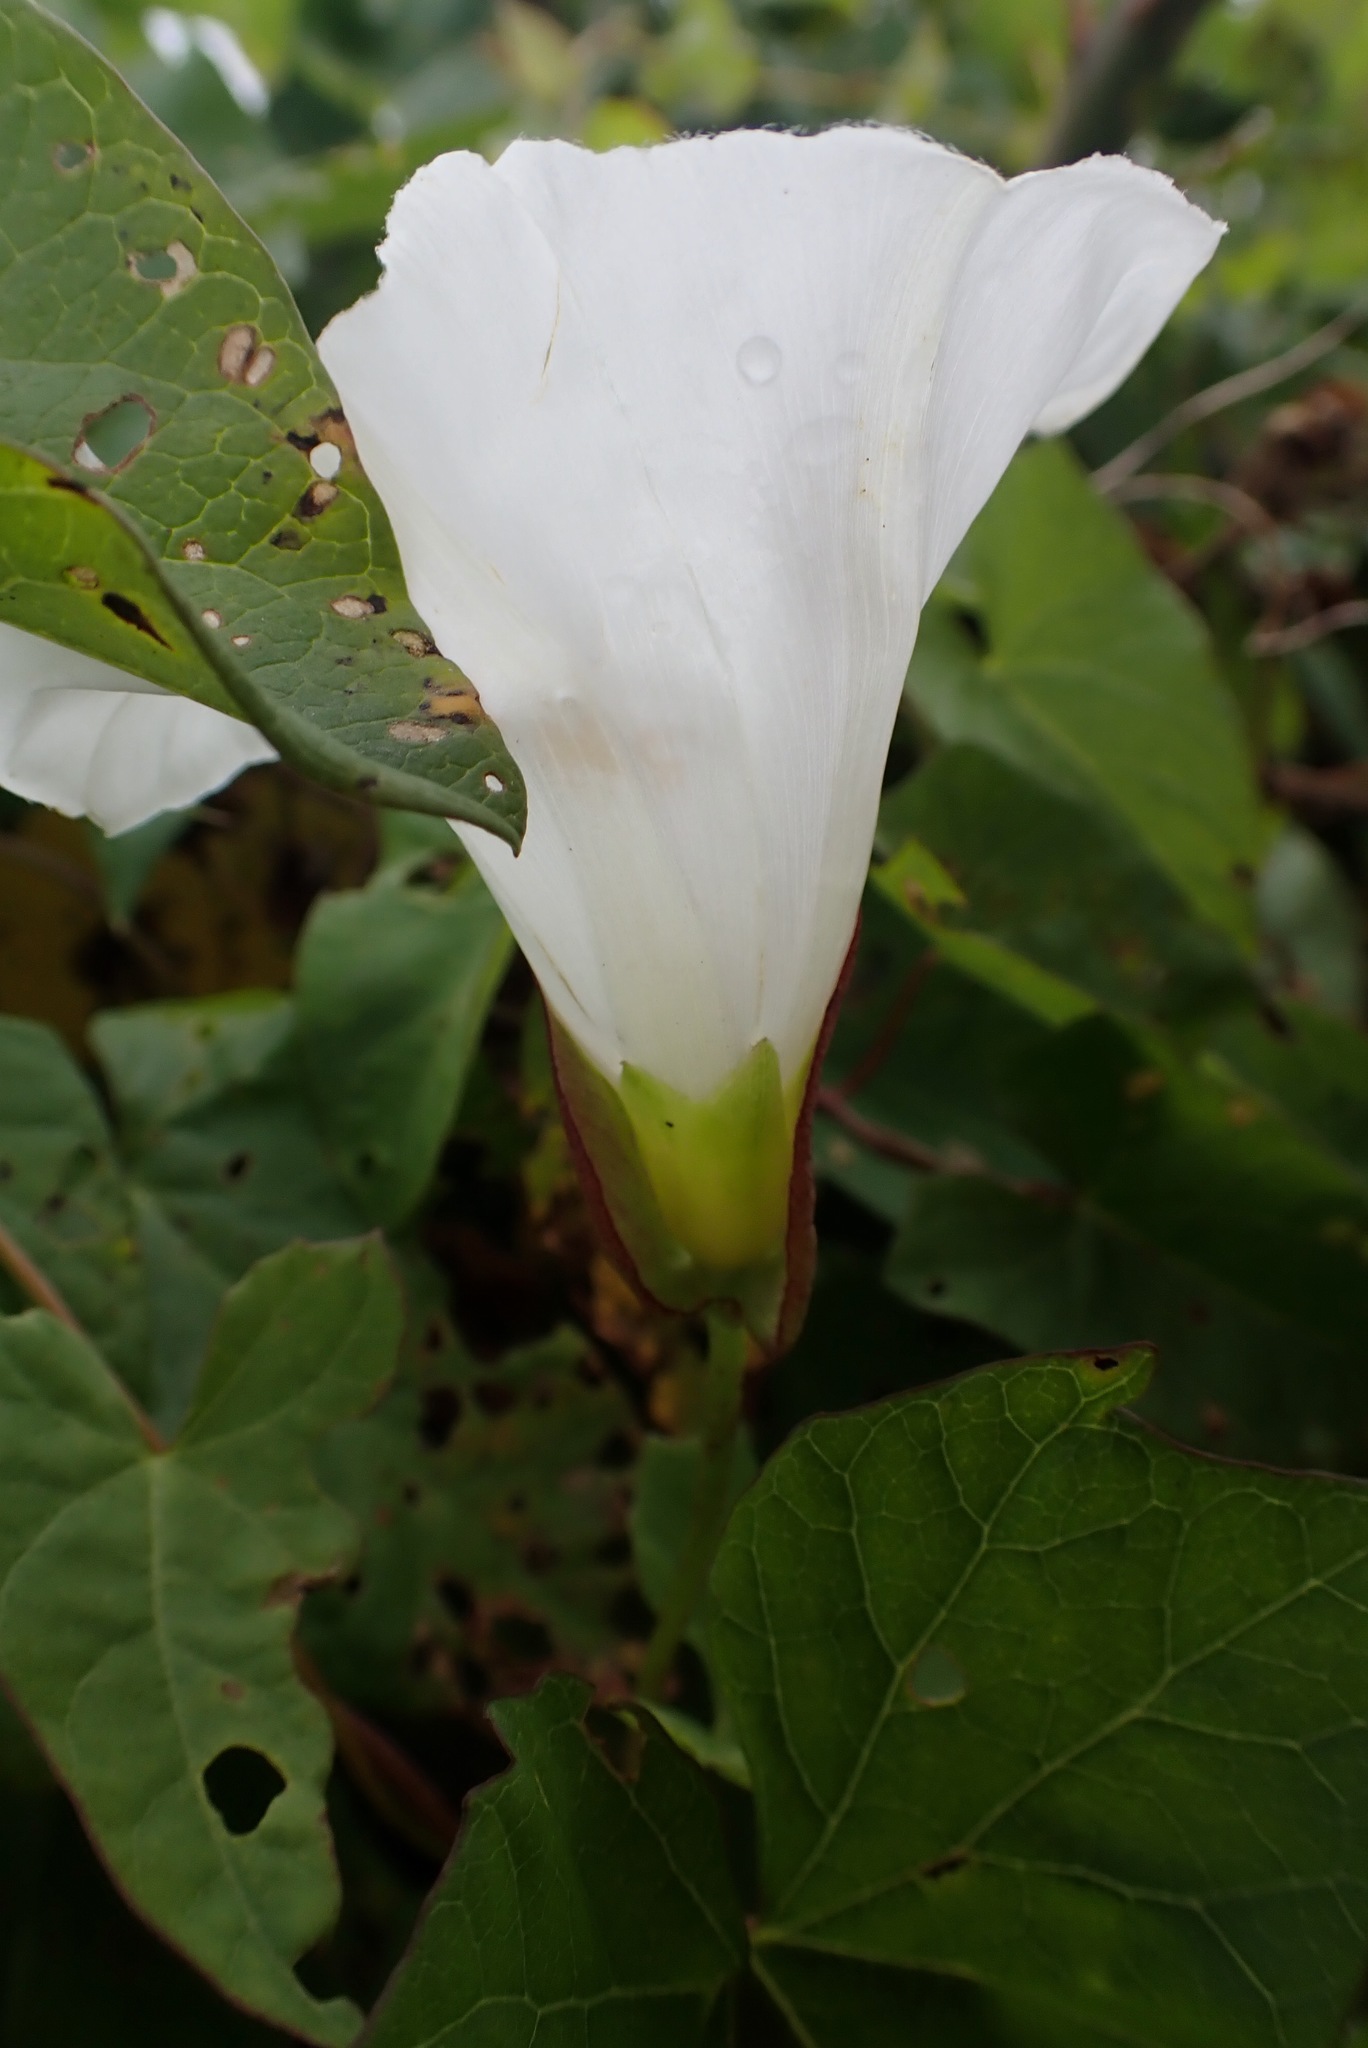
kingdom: Plantae
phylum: Tracheophyta
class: Magnoliopsida
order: Solanales
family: Convolvulaceae
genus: Calystegia
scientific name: Calystegia sepium
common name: Hedge bindweed
